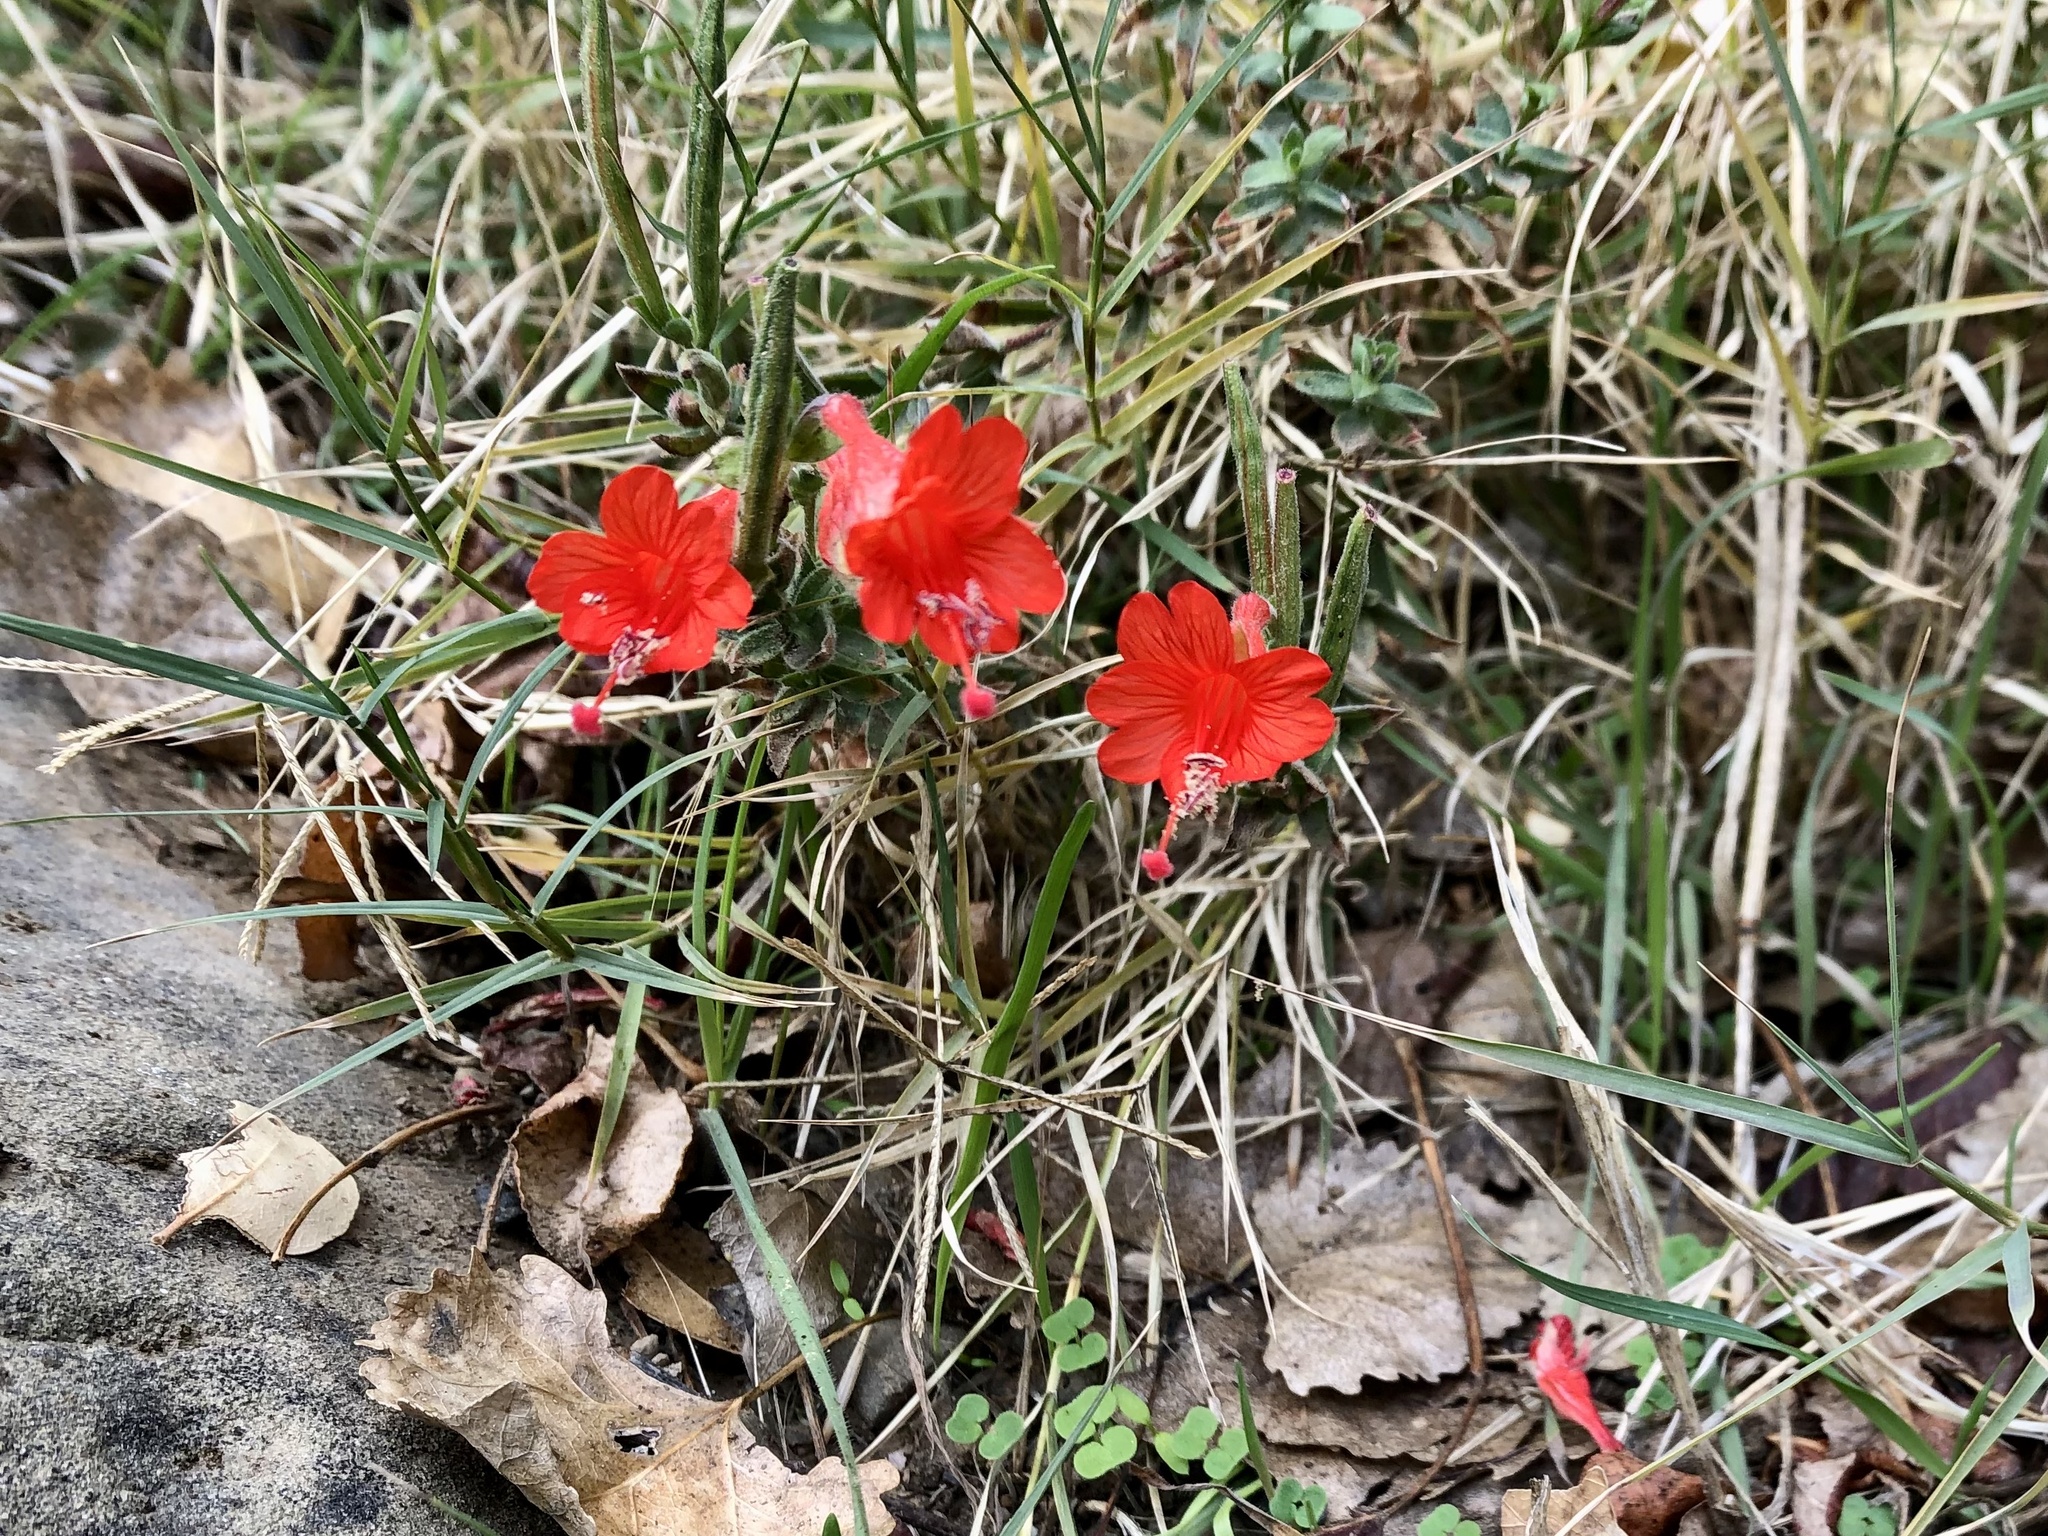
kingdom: Plantae
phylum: Tracheophyta
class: Magnoliopsida
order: Myrtales
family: Onagraceae
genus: Epilobium
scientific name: Epilobium canum
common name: California-fuchsia
